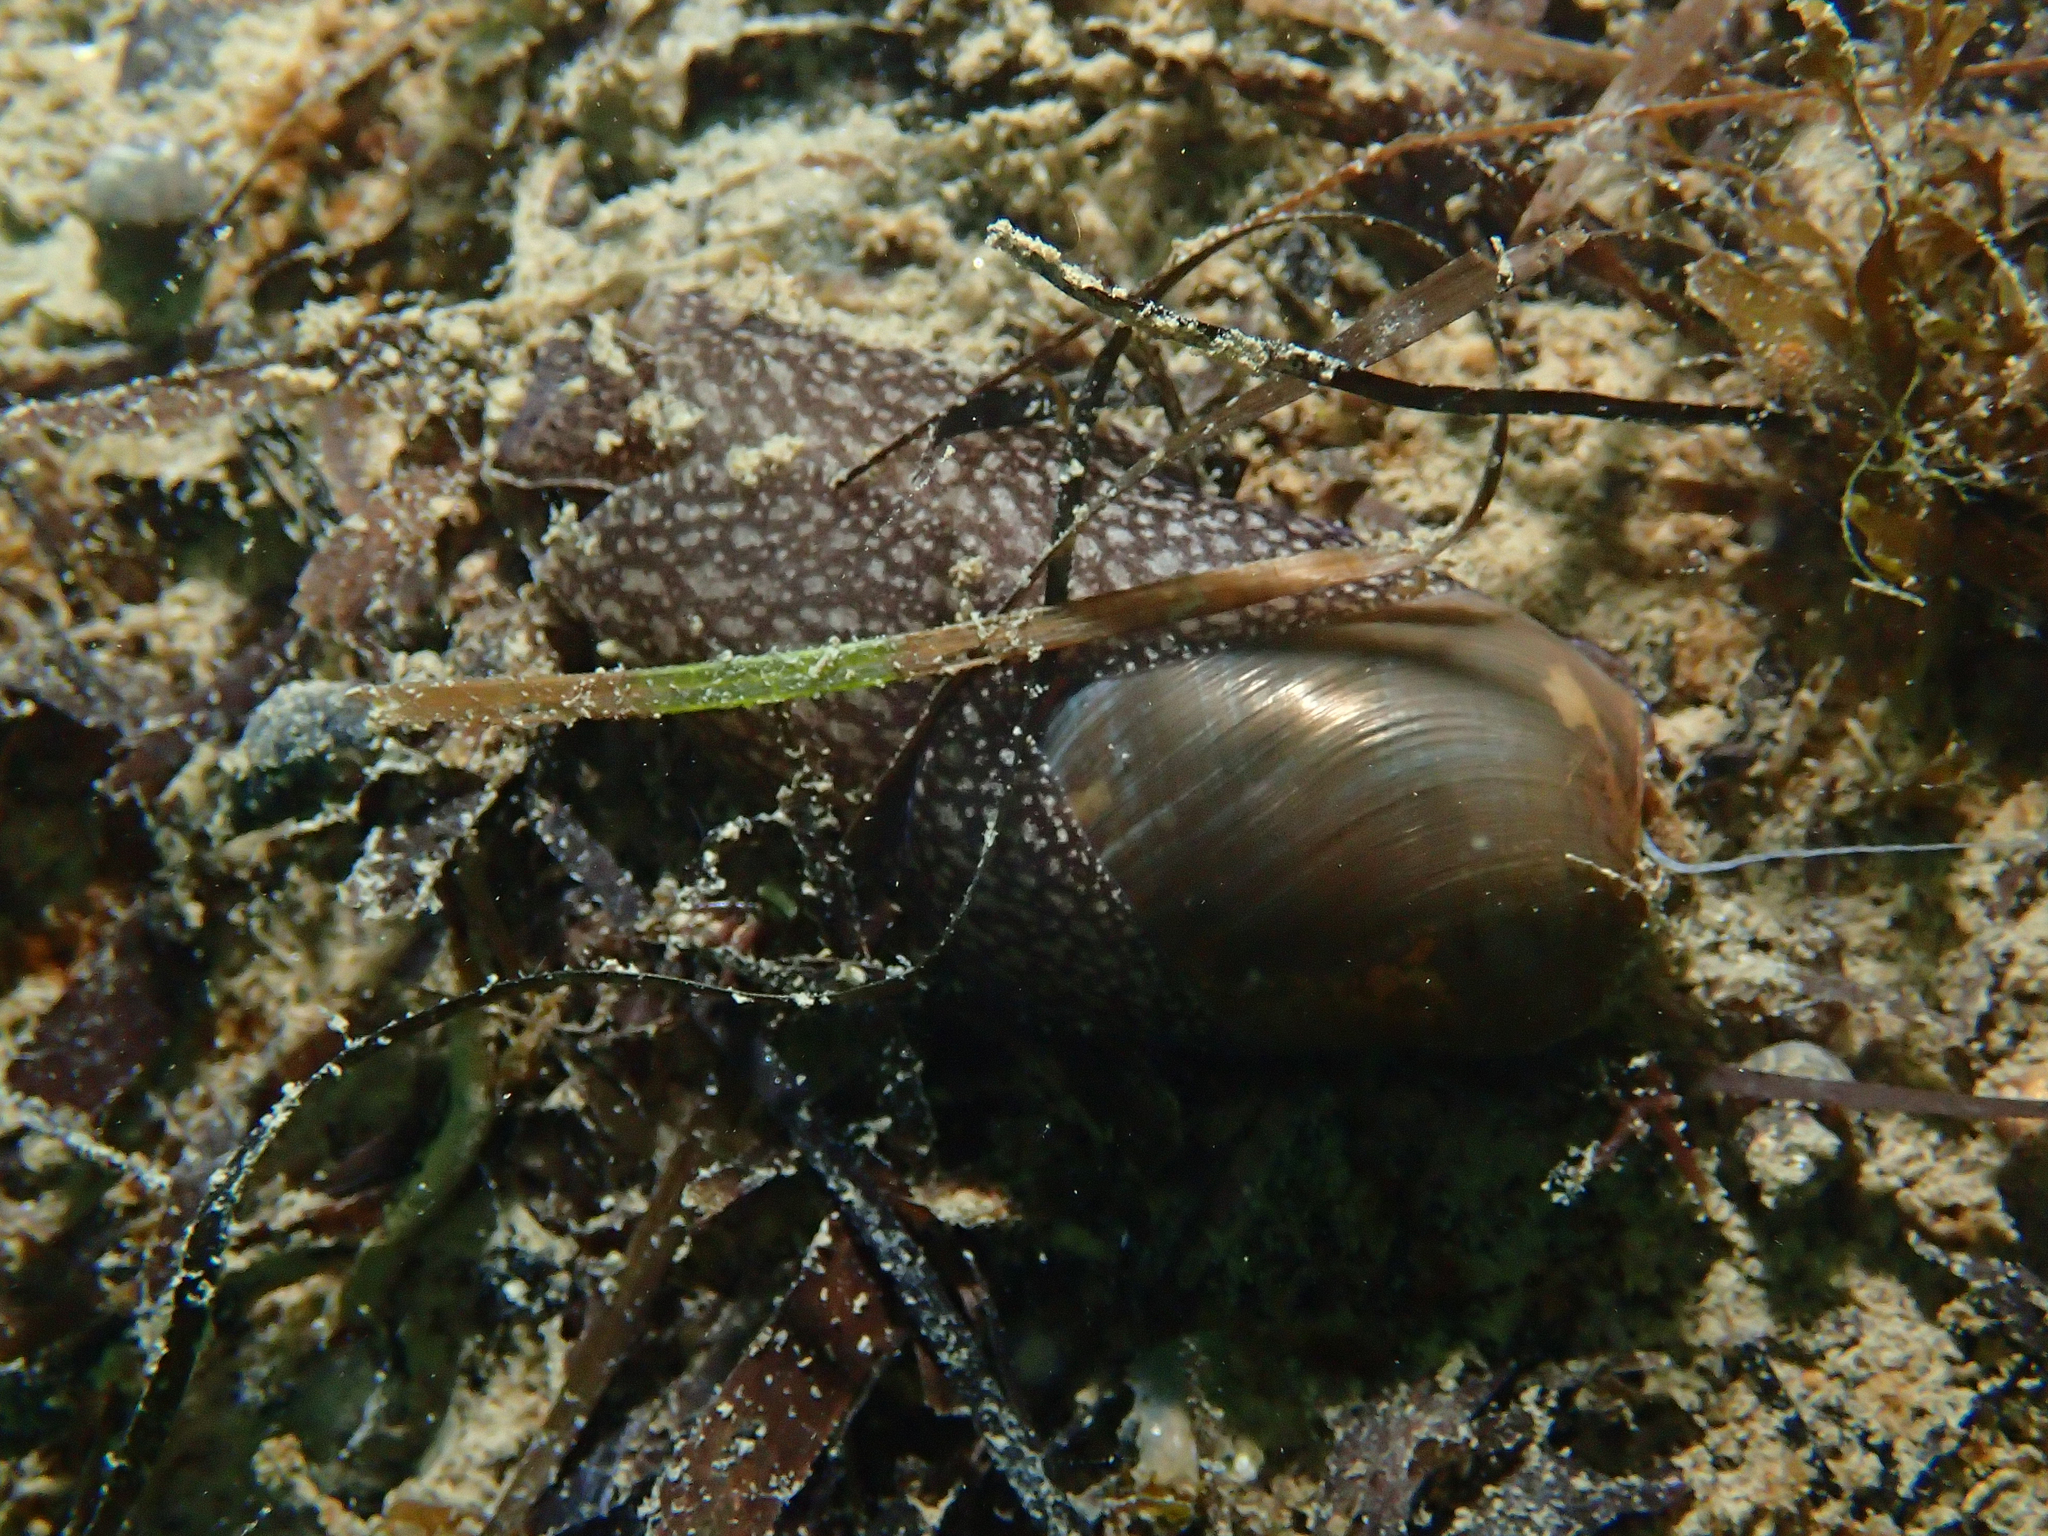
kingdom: Animalia
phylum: Mollusca
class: Gastropoda
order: Aplysiida
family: Akeridae
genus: Akera
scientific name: Akera bullata
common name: Common bubble snail
